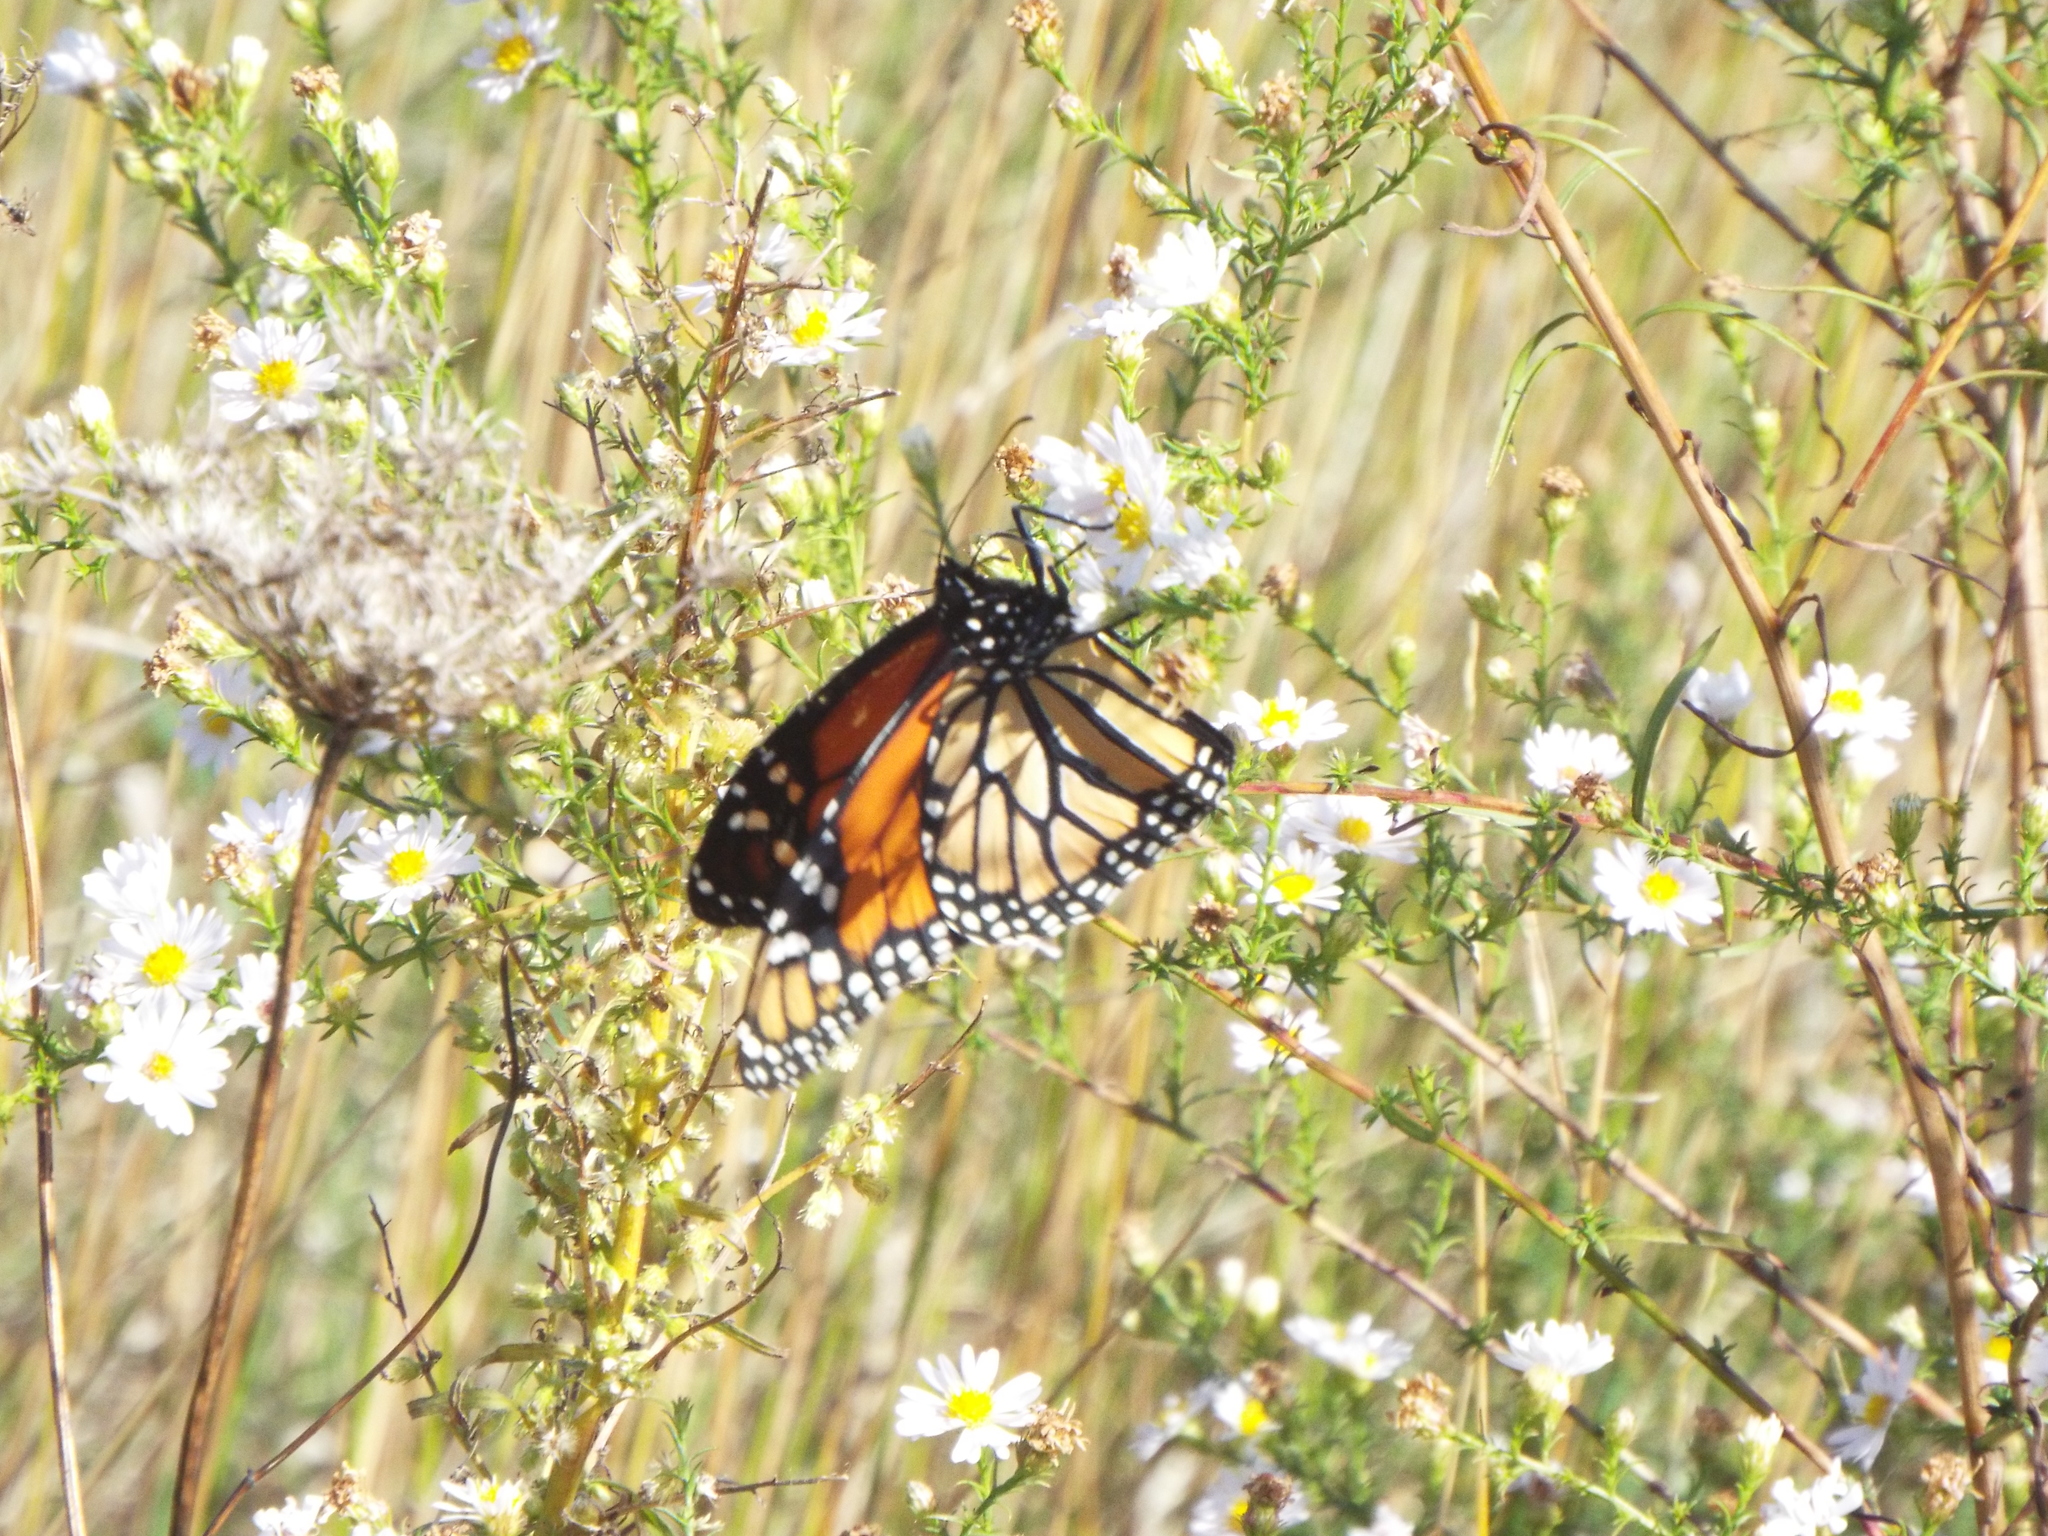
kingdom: Animalia
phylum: Arthropoda
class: Insecta
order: Lepidoptera
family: Nymphalidae
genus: Danaus
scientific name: Danaus plexippus
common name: Monarch
